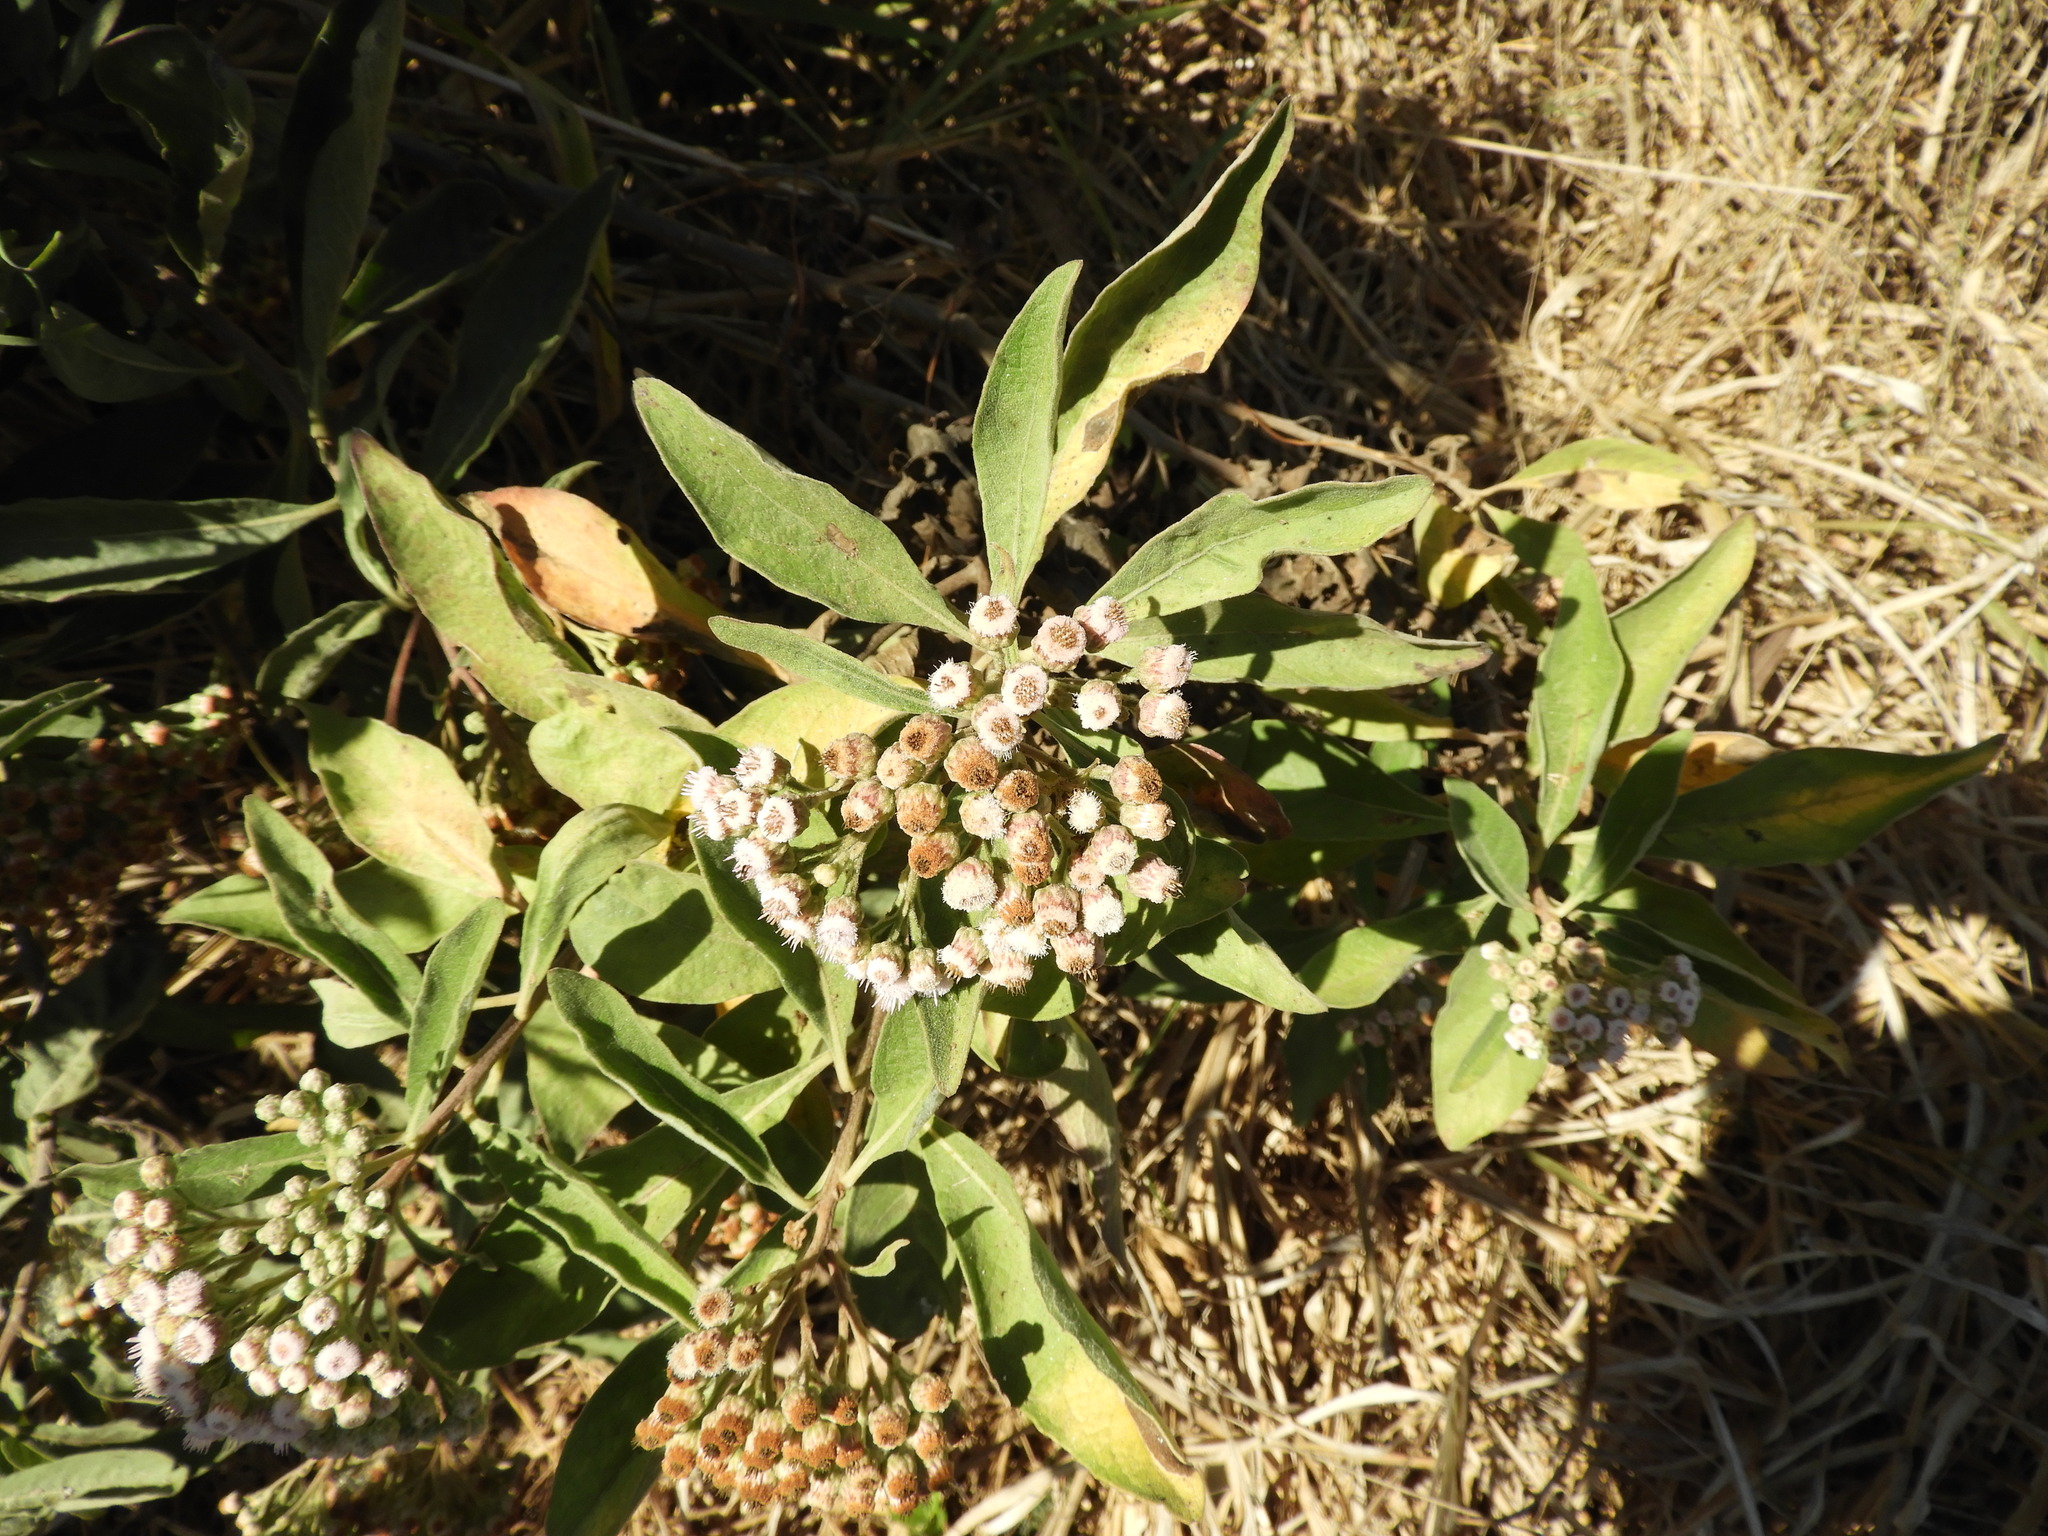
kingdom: Plantae
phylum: Tracheophyta
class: Magnoliopsida
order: Asterales
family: Asteraceae
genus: Pluchea
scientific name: Pluchea carolinensis
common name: Marsh fleabane
